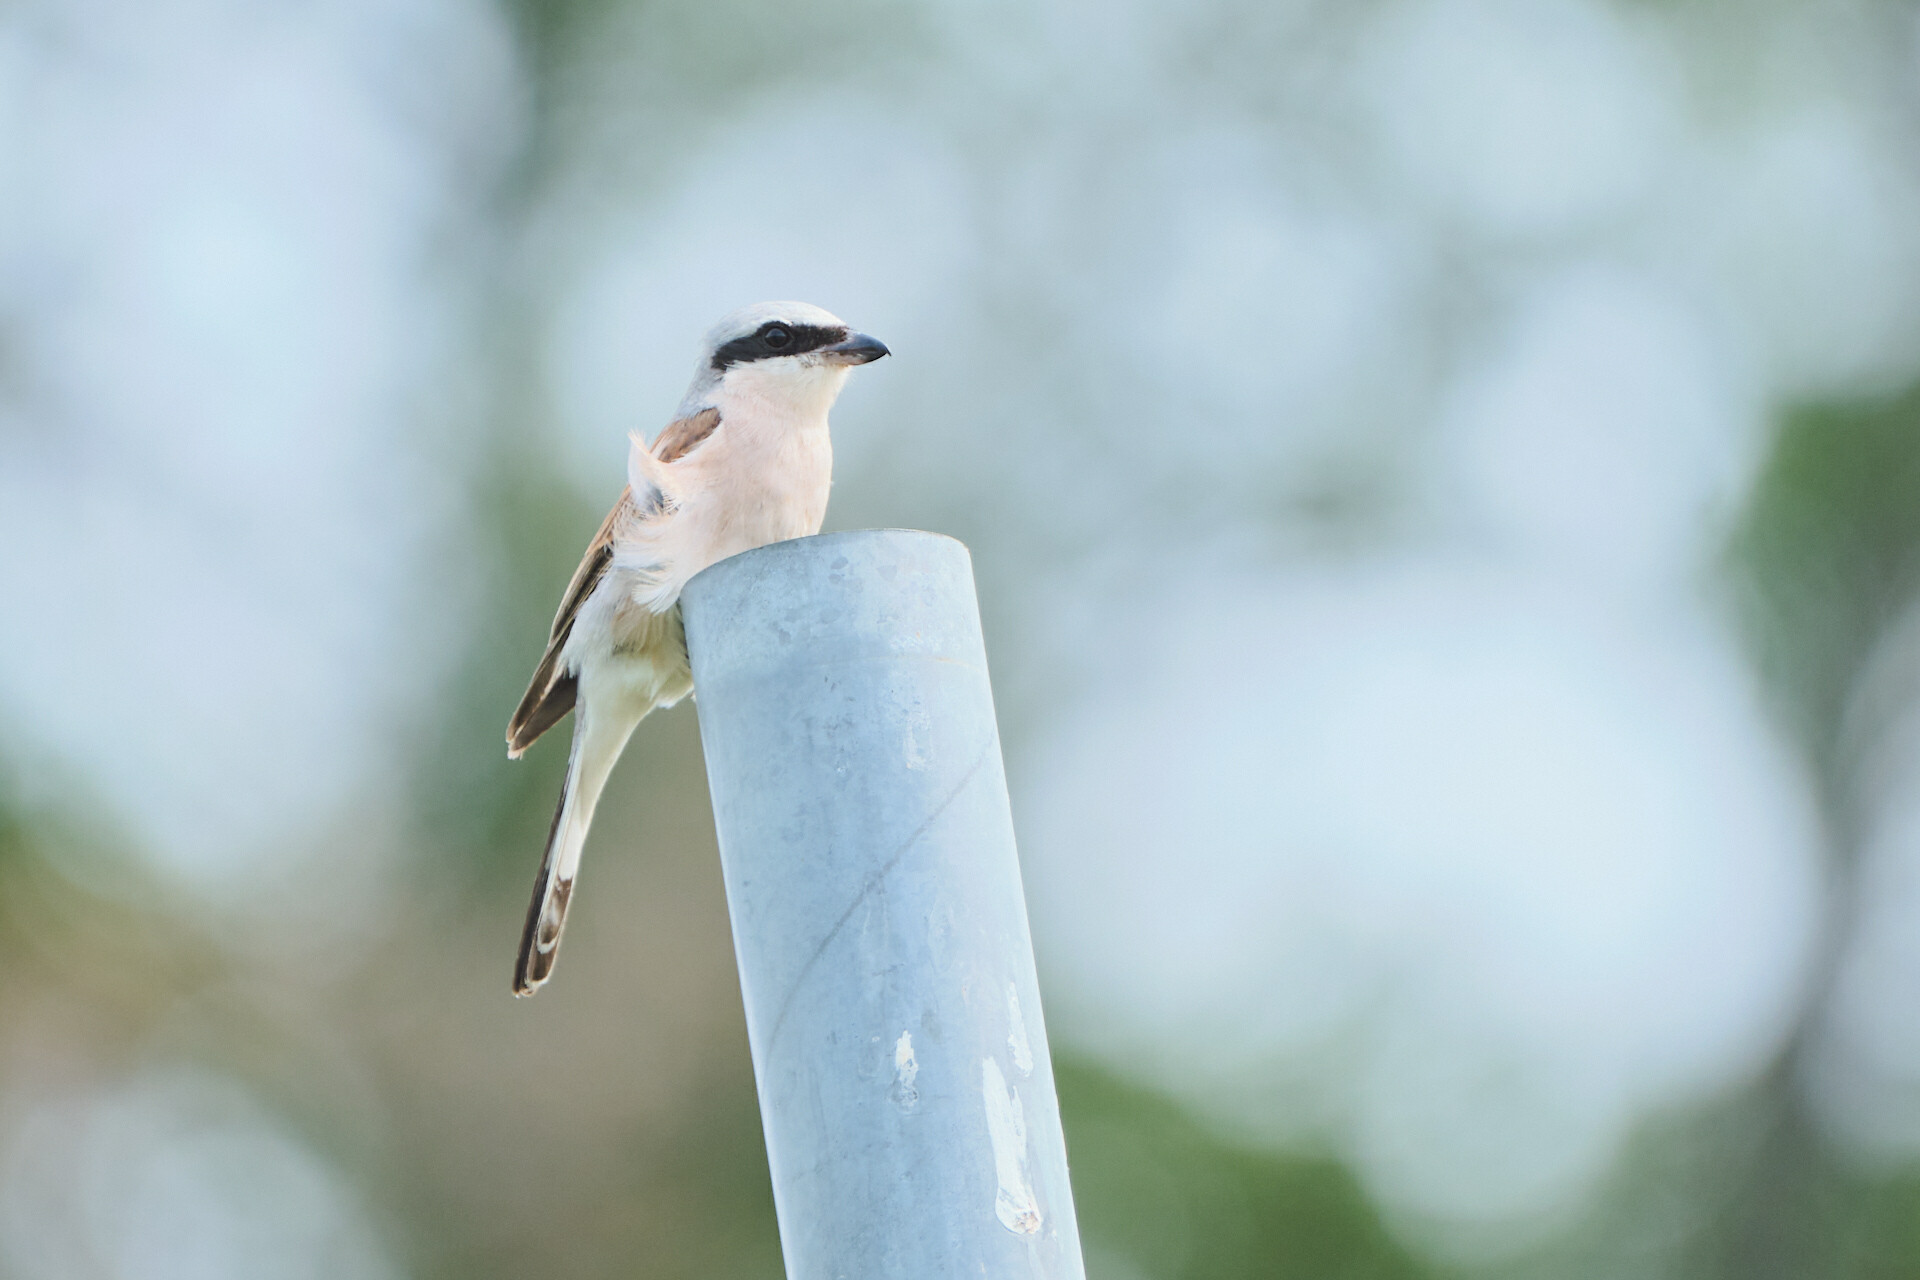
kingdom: Animalia
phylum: Chordata
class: Aves
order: Passeriformes
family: Laniidae
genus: Lanius
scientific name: Lanius collurio
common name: Red-backed shrike
